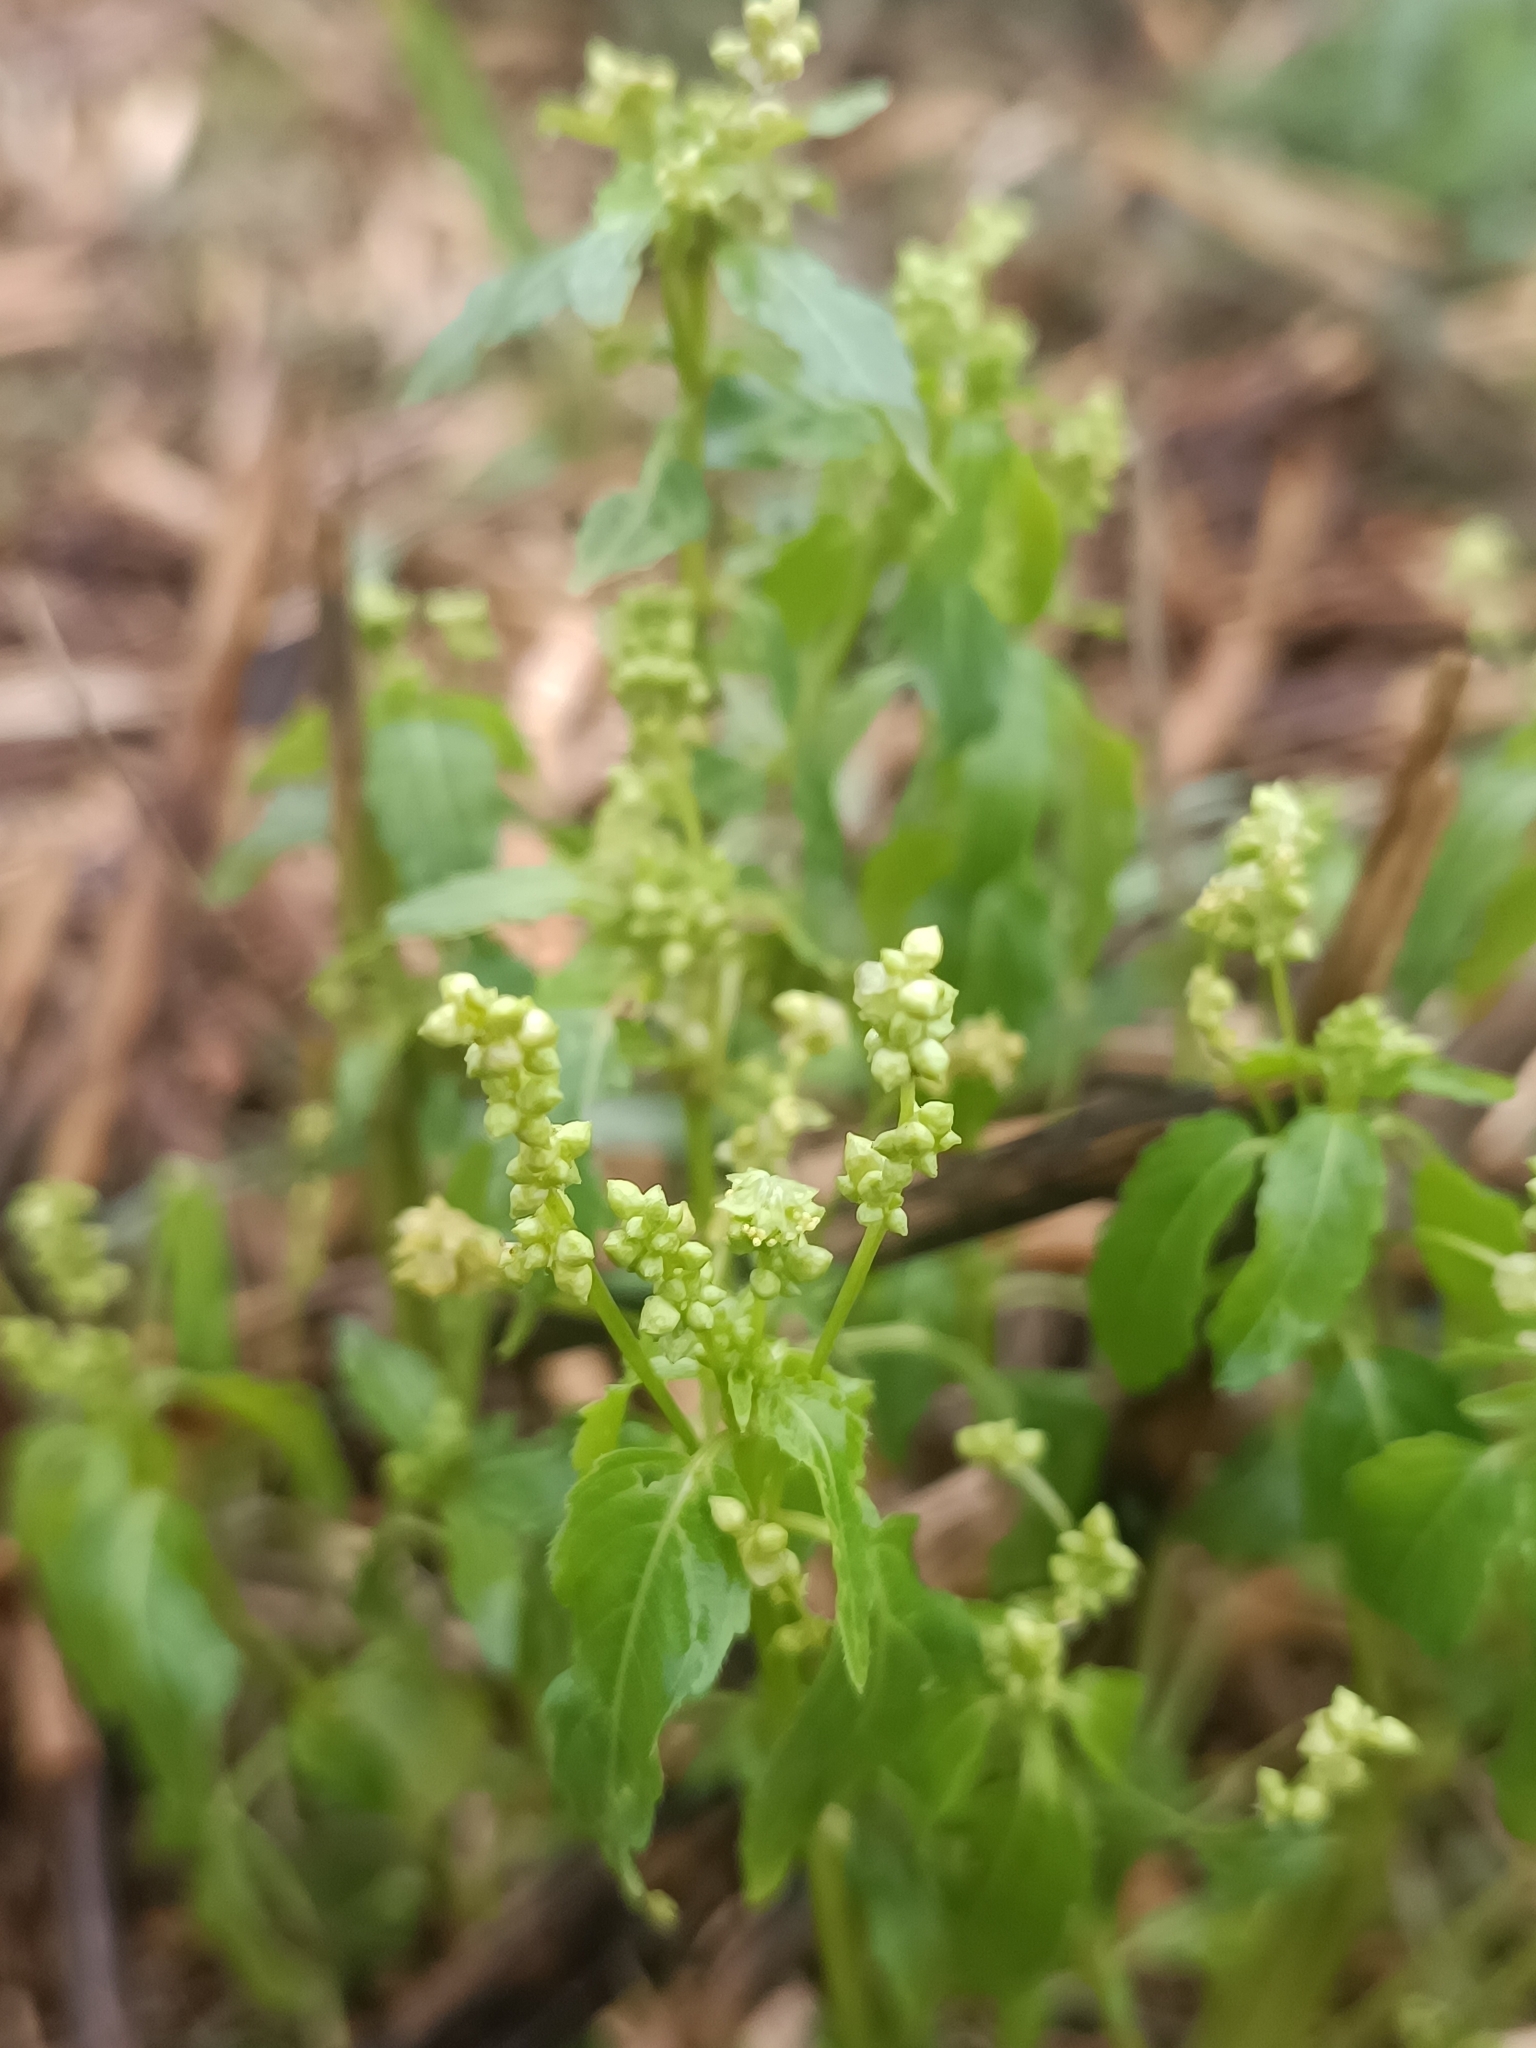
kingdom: Plantae
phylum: Tracheophyta
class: Magnoliopsida
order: Malpighiales
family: Euphorbiaceae
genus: Mercurialis
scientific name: Mercurialis annua
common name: Annual mercury
